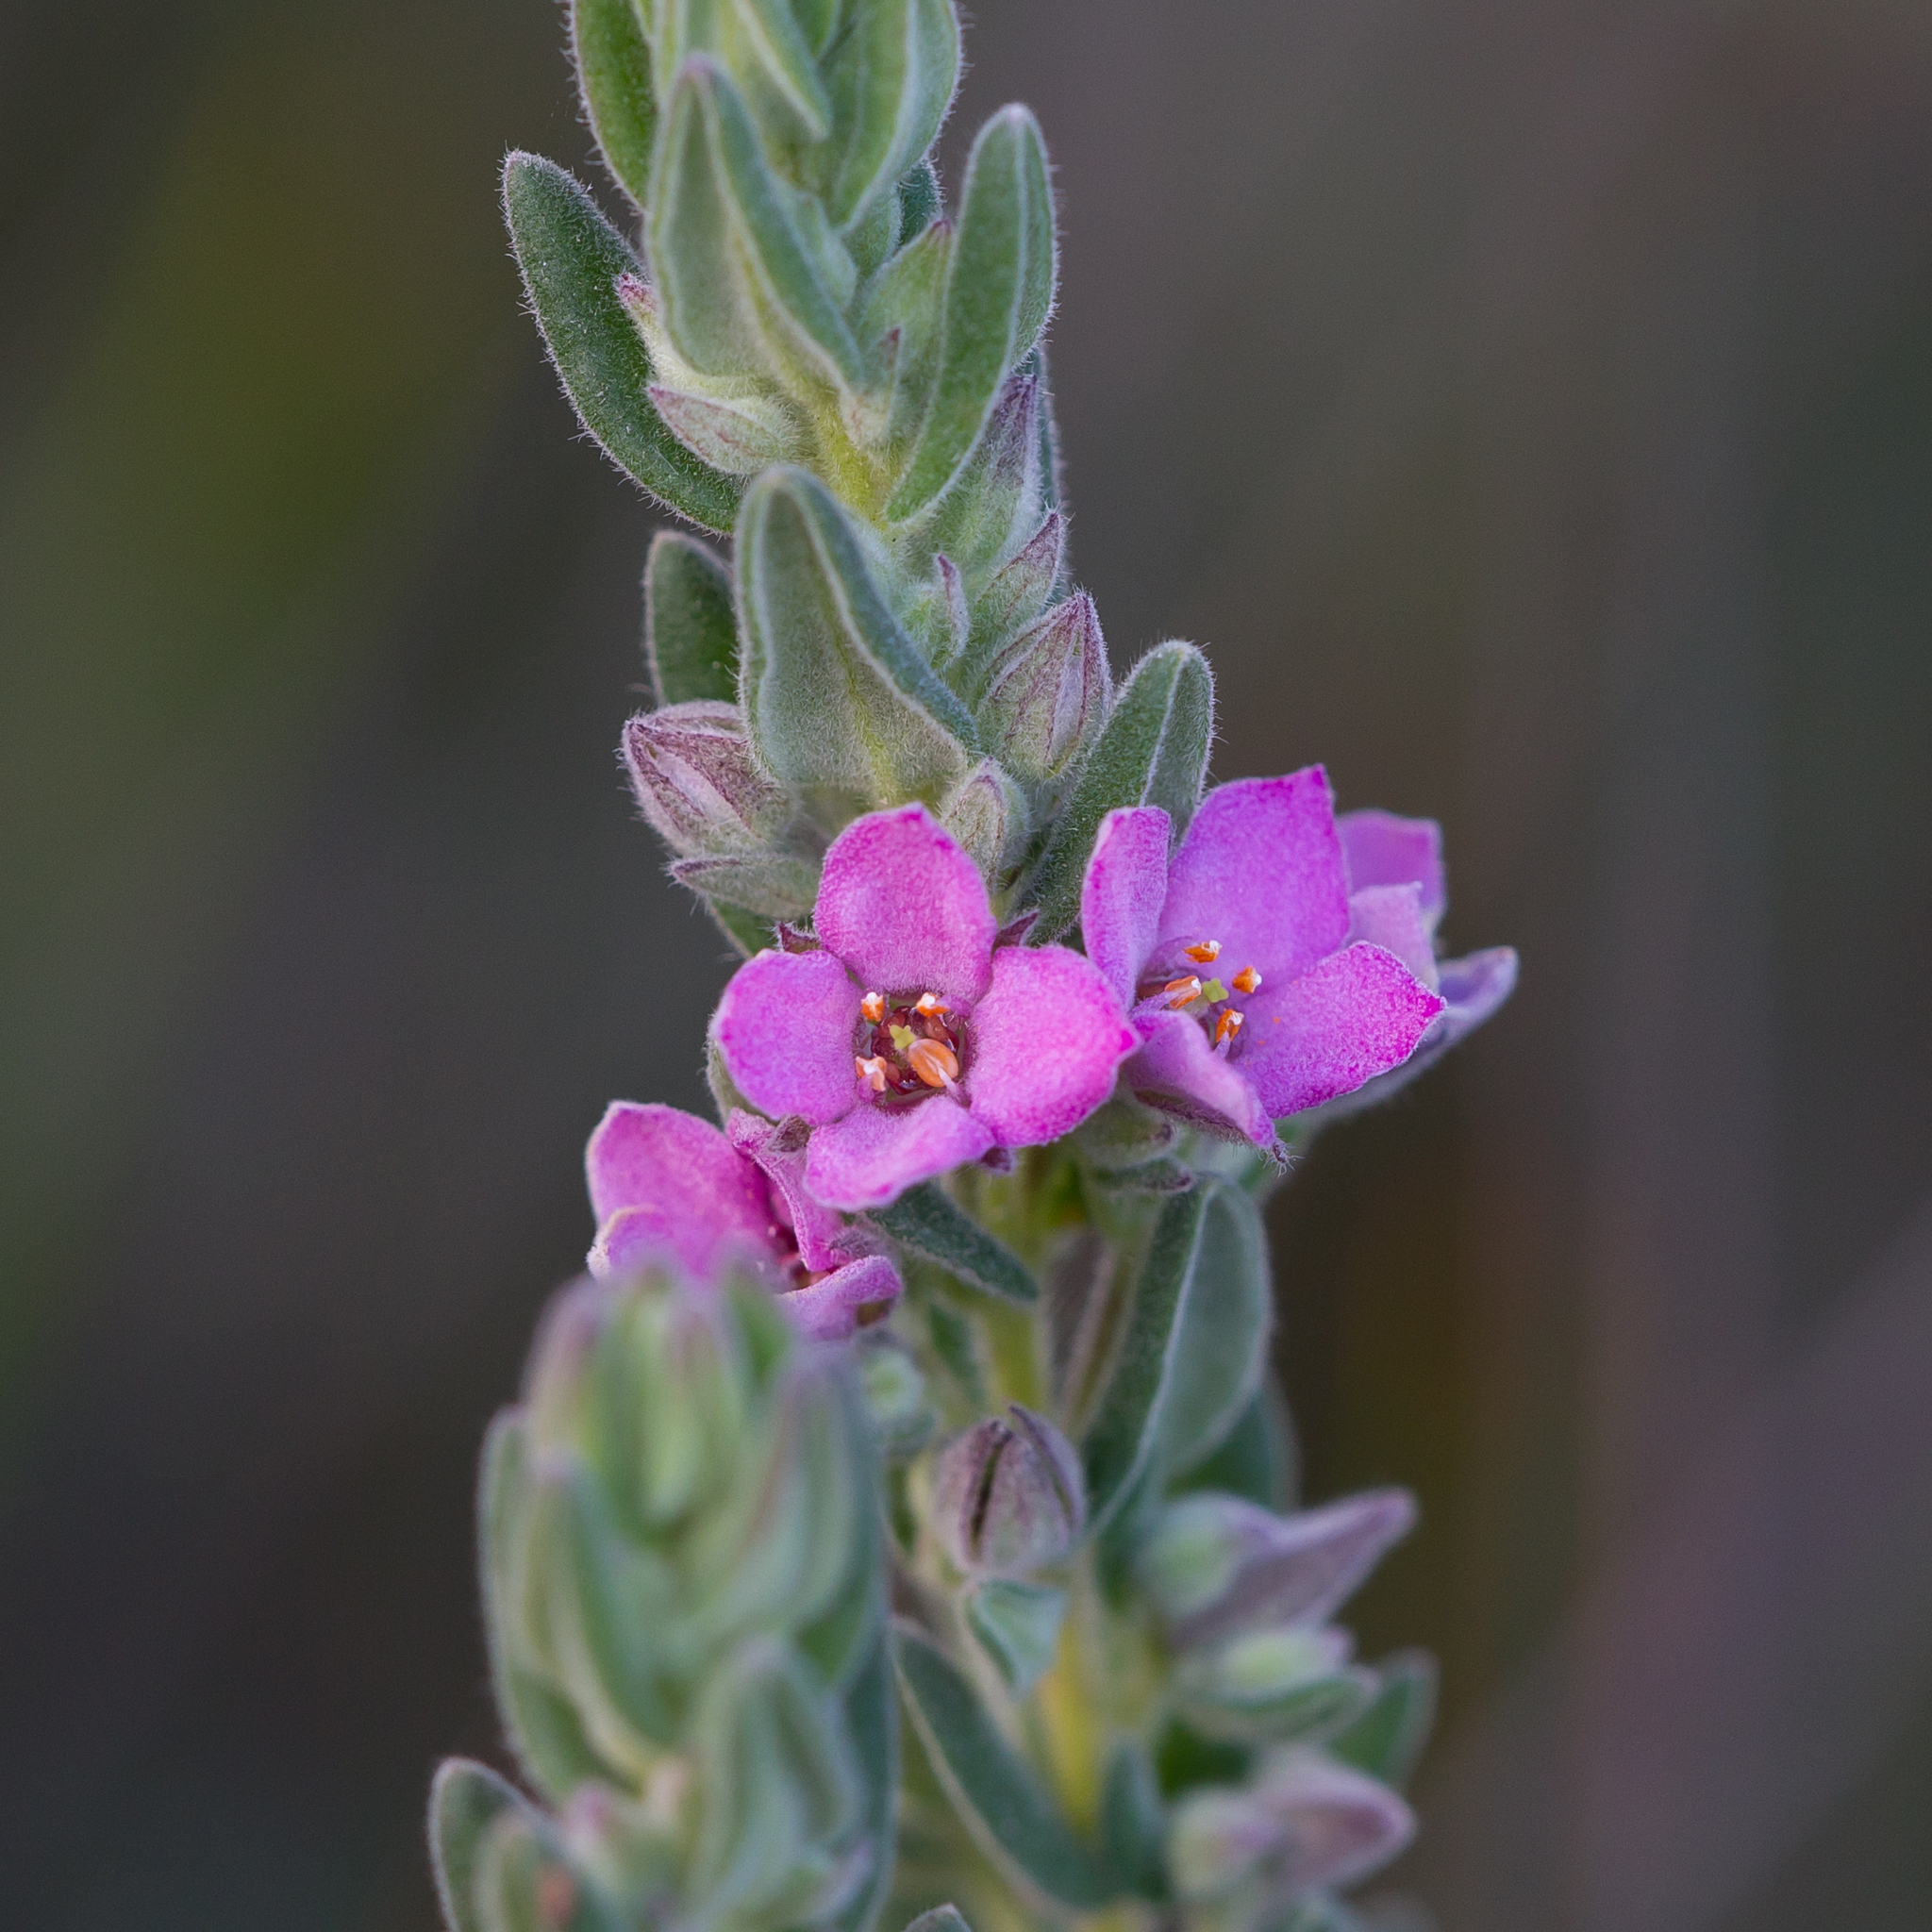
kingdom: Plantae
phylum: Tracheophyta
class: Magnoliopsida
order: Sapindales
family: Rutaceae
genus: Zieria
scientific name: Zieria veronicea
